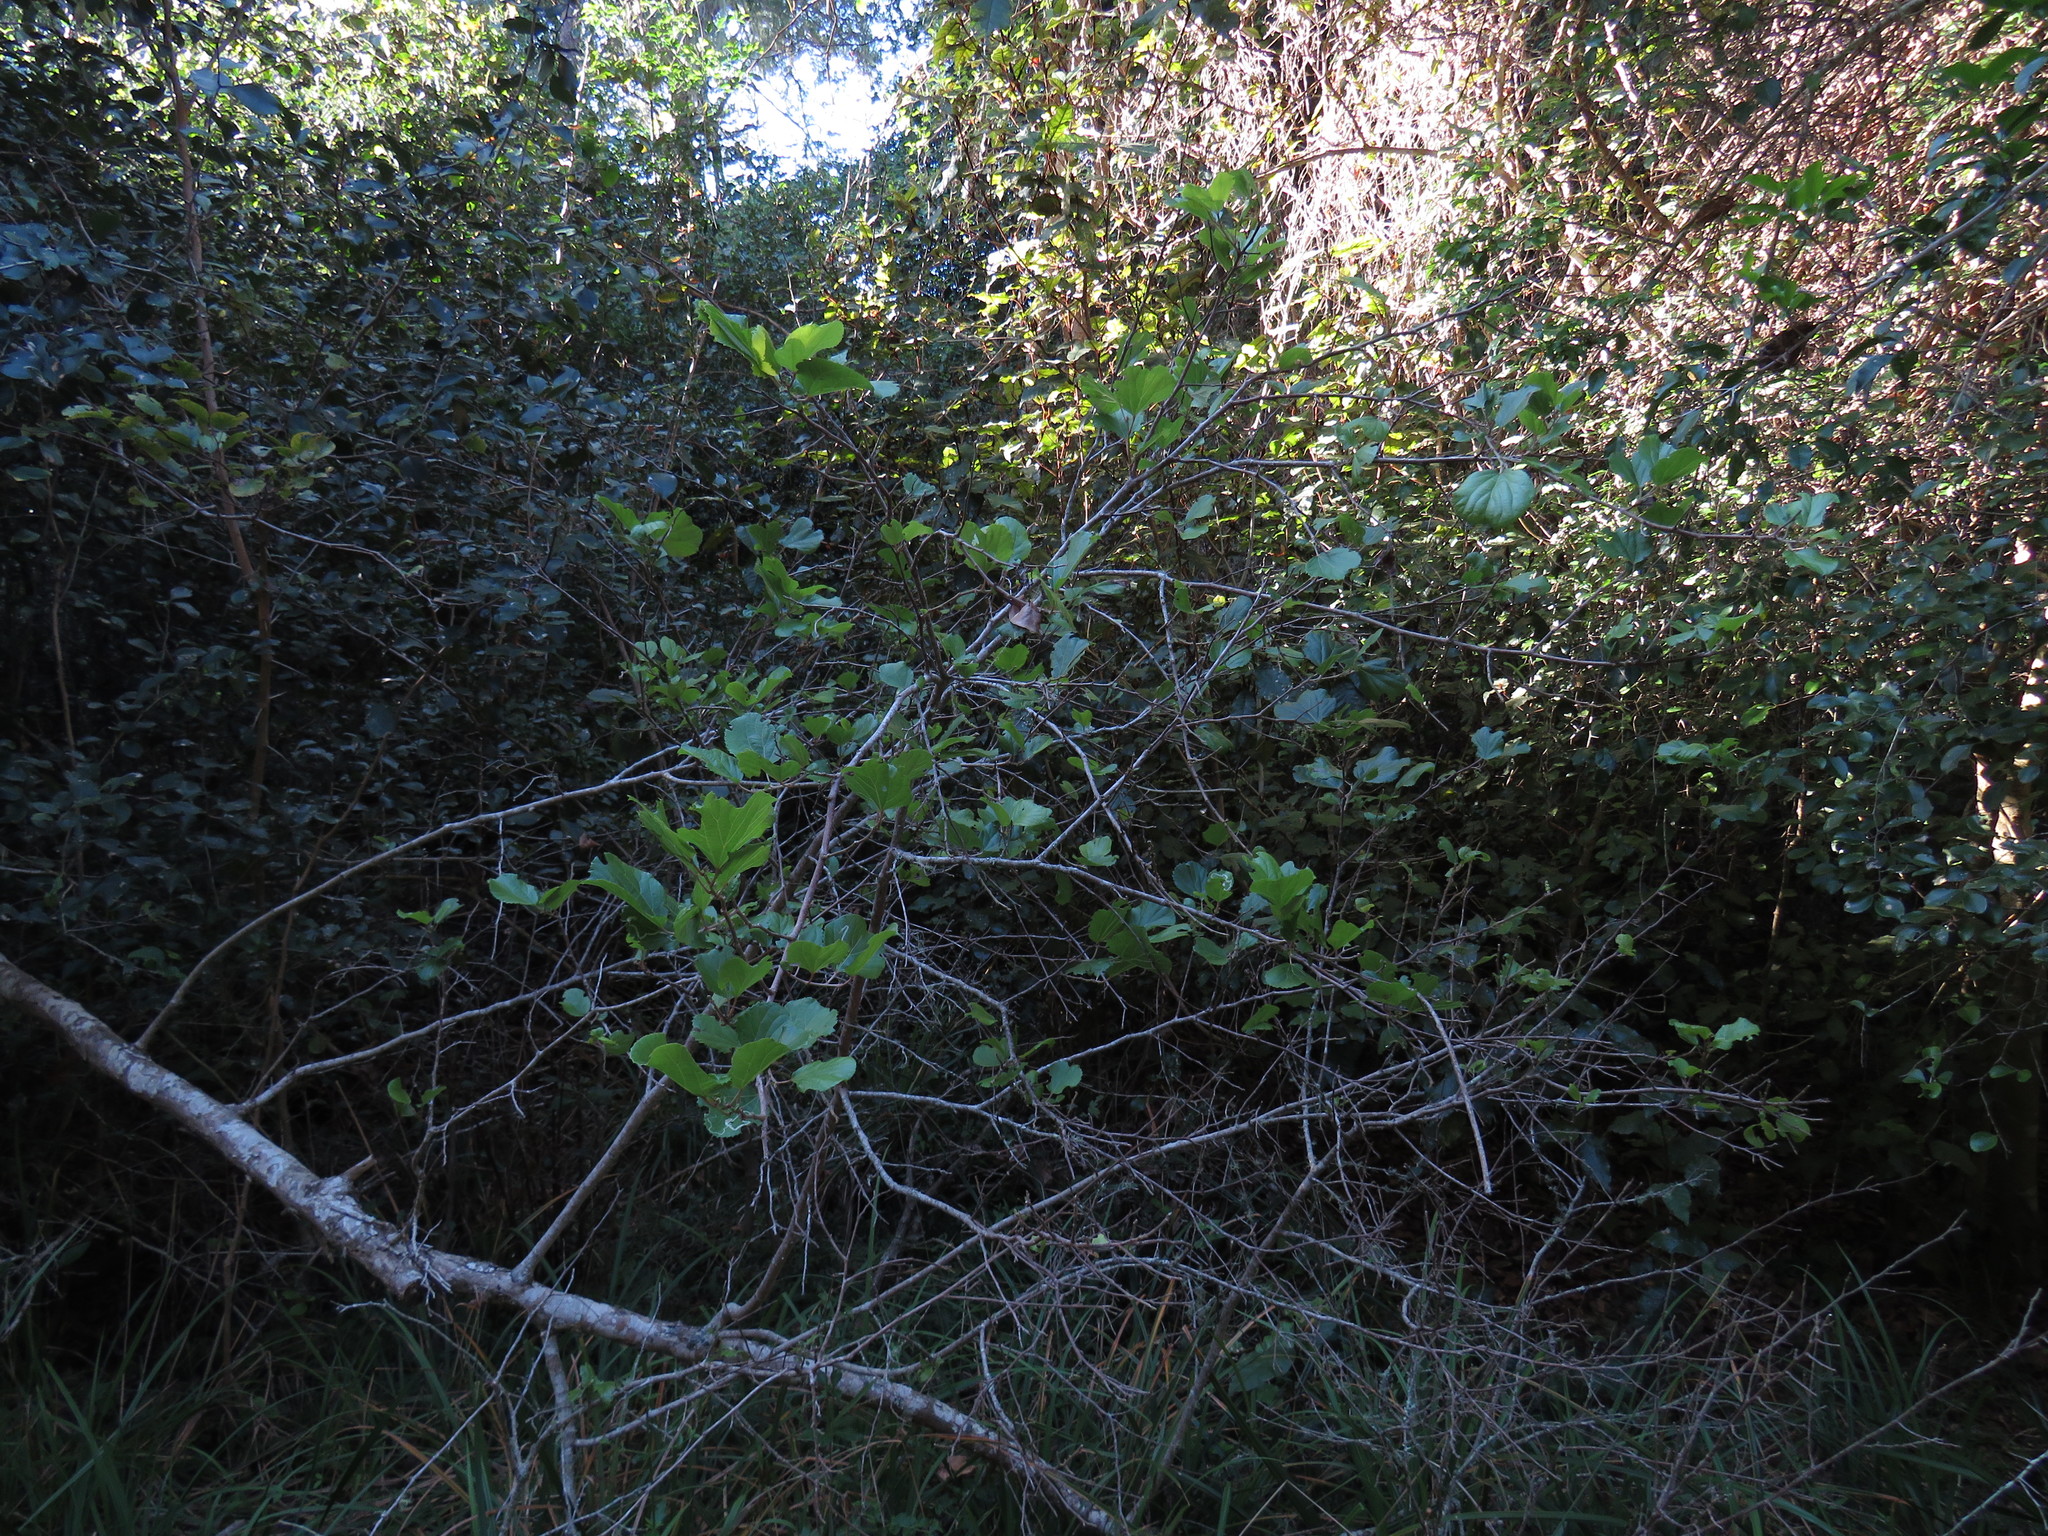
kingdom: Plantae
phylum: Tracheophyta
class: Magnoliopsida
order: Malpighiales
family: Salicaceae
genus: Trimeria
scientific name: Trimeria grandifolia
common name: Wild mulberry
